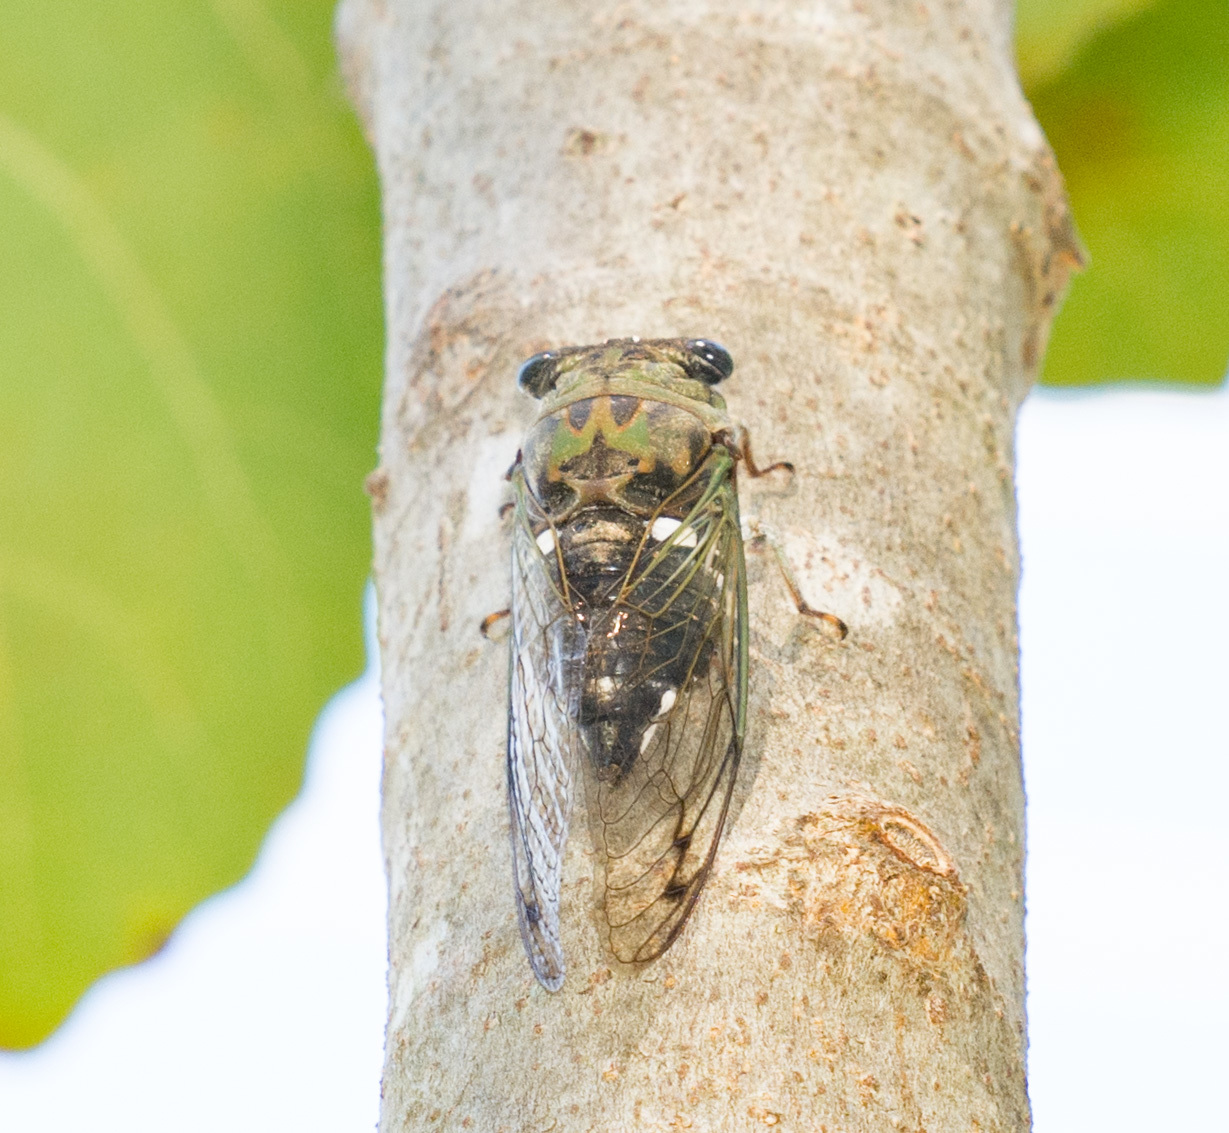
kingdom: Animalia
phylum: Arthropoda
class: Insecta
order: Hemiptera
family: Cicadidae
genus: Neotibicen
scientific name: Neotibicen pruinosus
